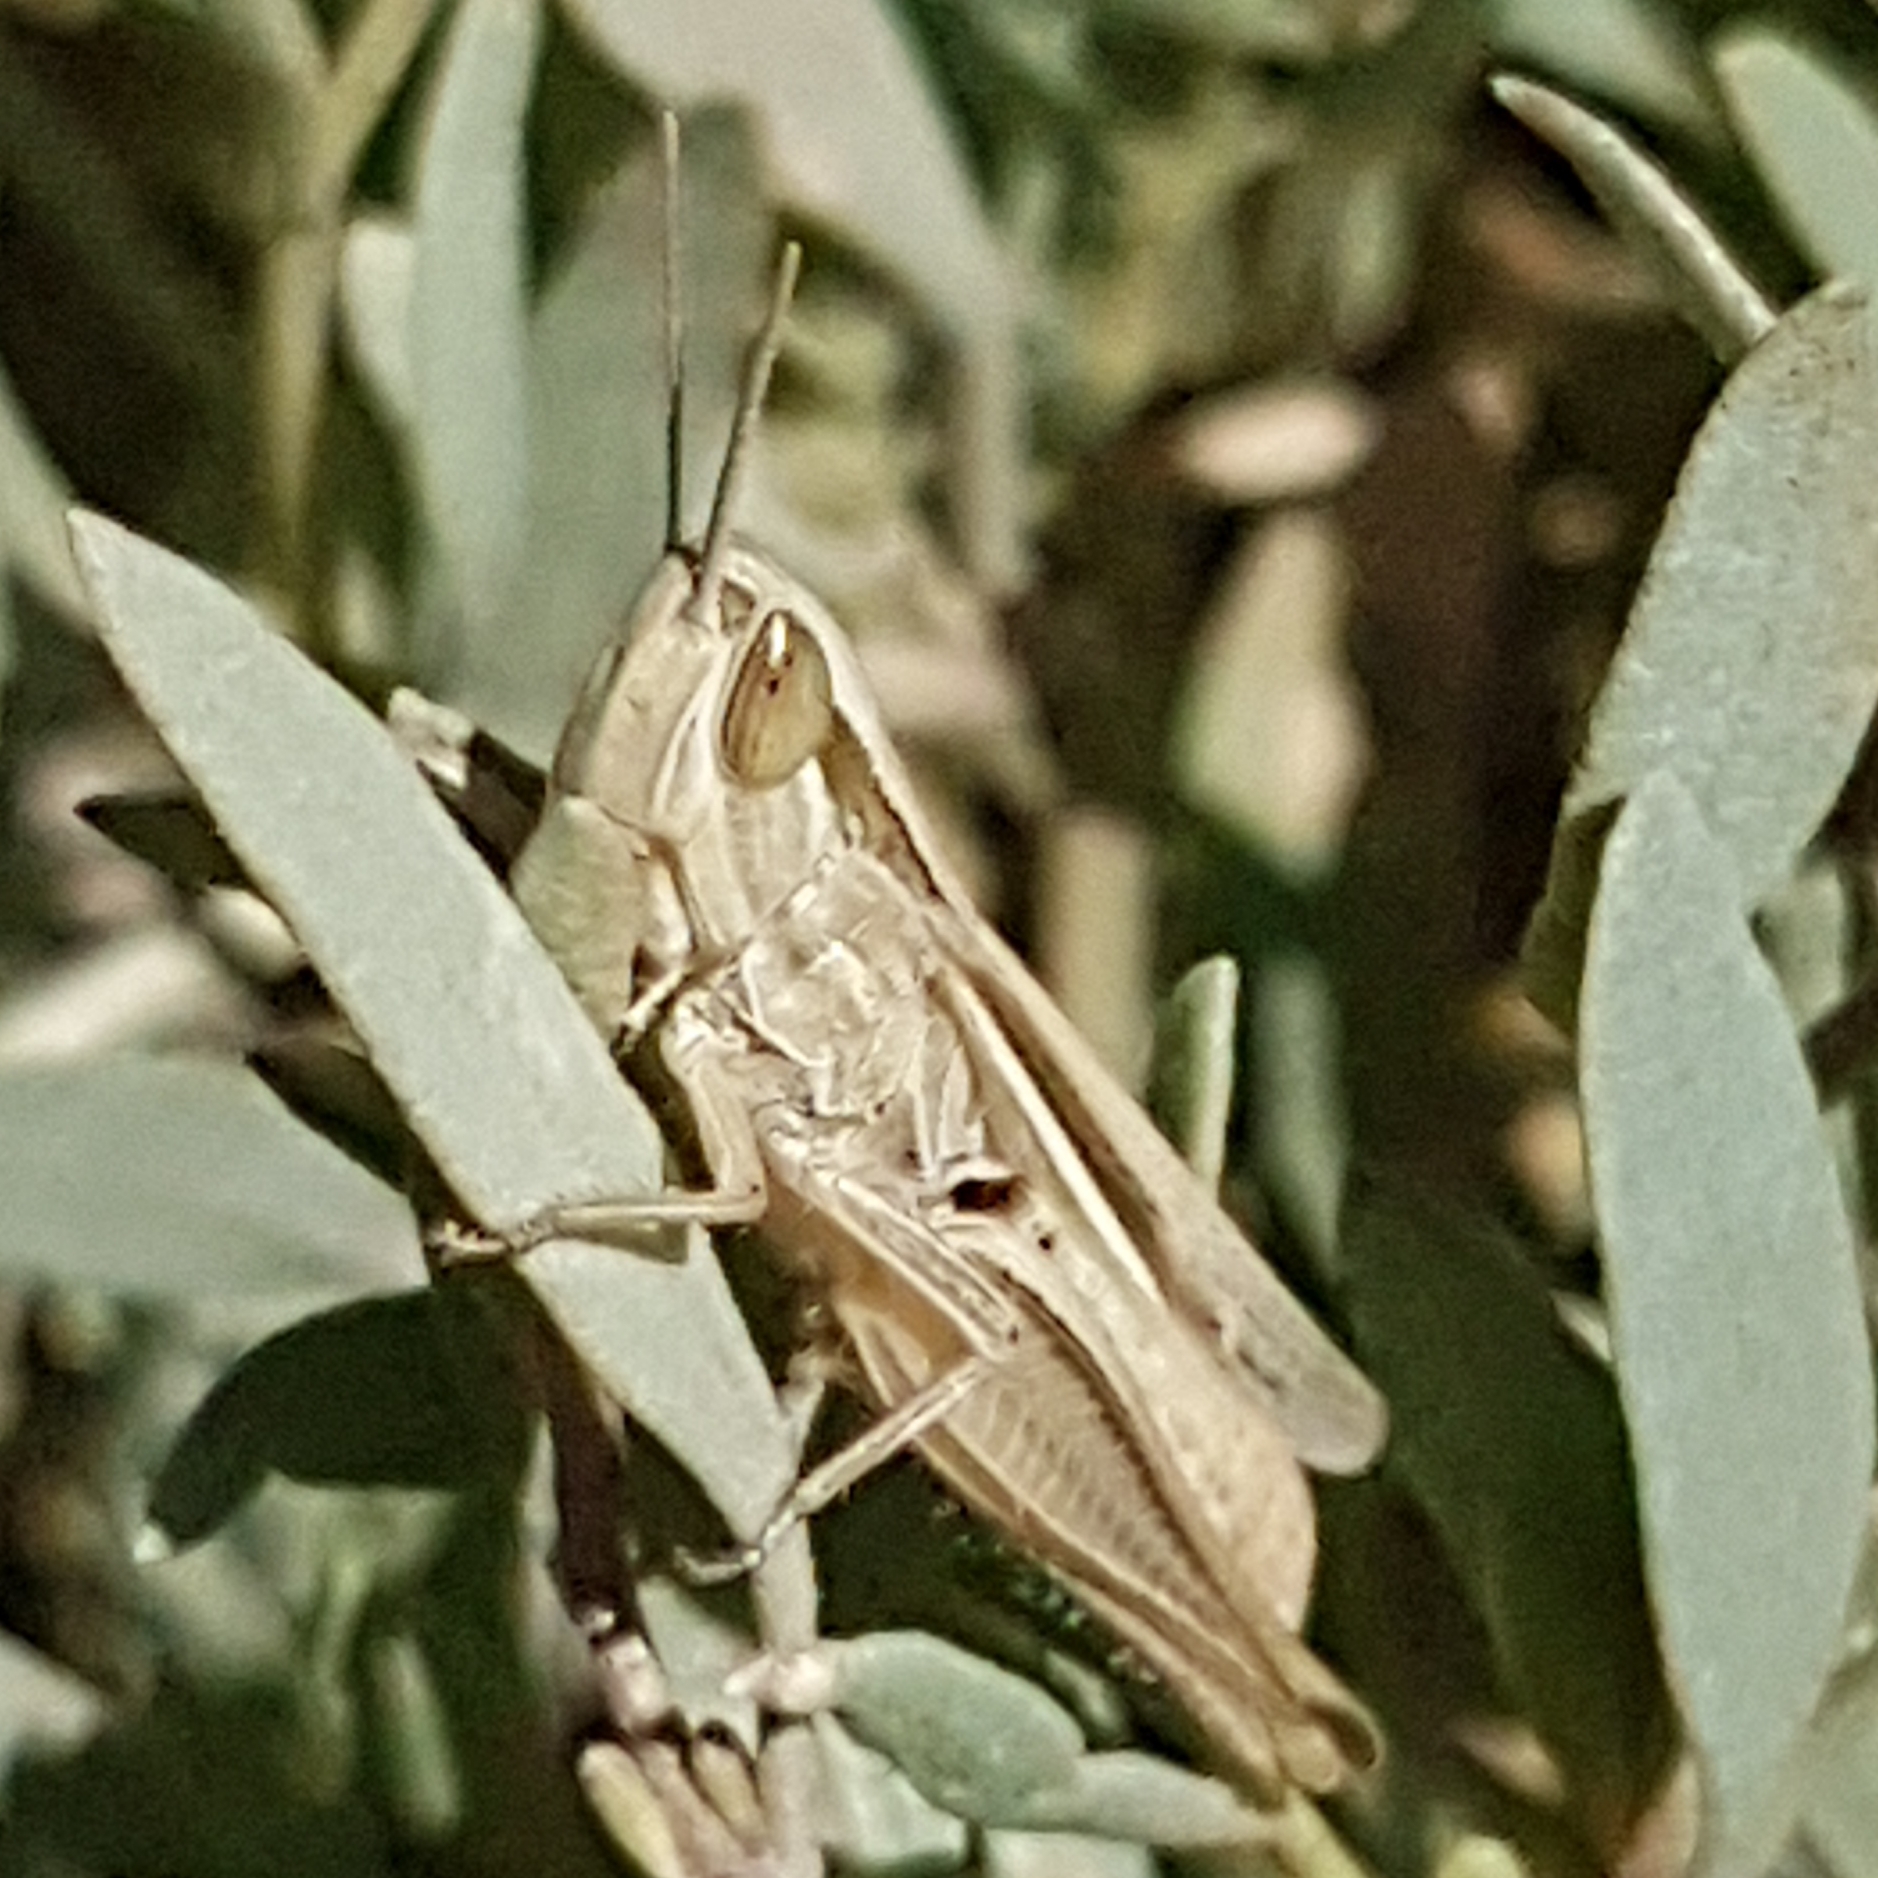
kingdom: Animalia
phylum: Arthropoda
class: Insecta
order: Orthoptera
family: Acrididae
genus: Euchorthippus
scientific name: Euchorthippus elegantulus
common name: Elegant straw grasshopper
